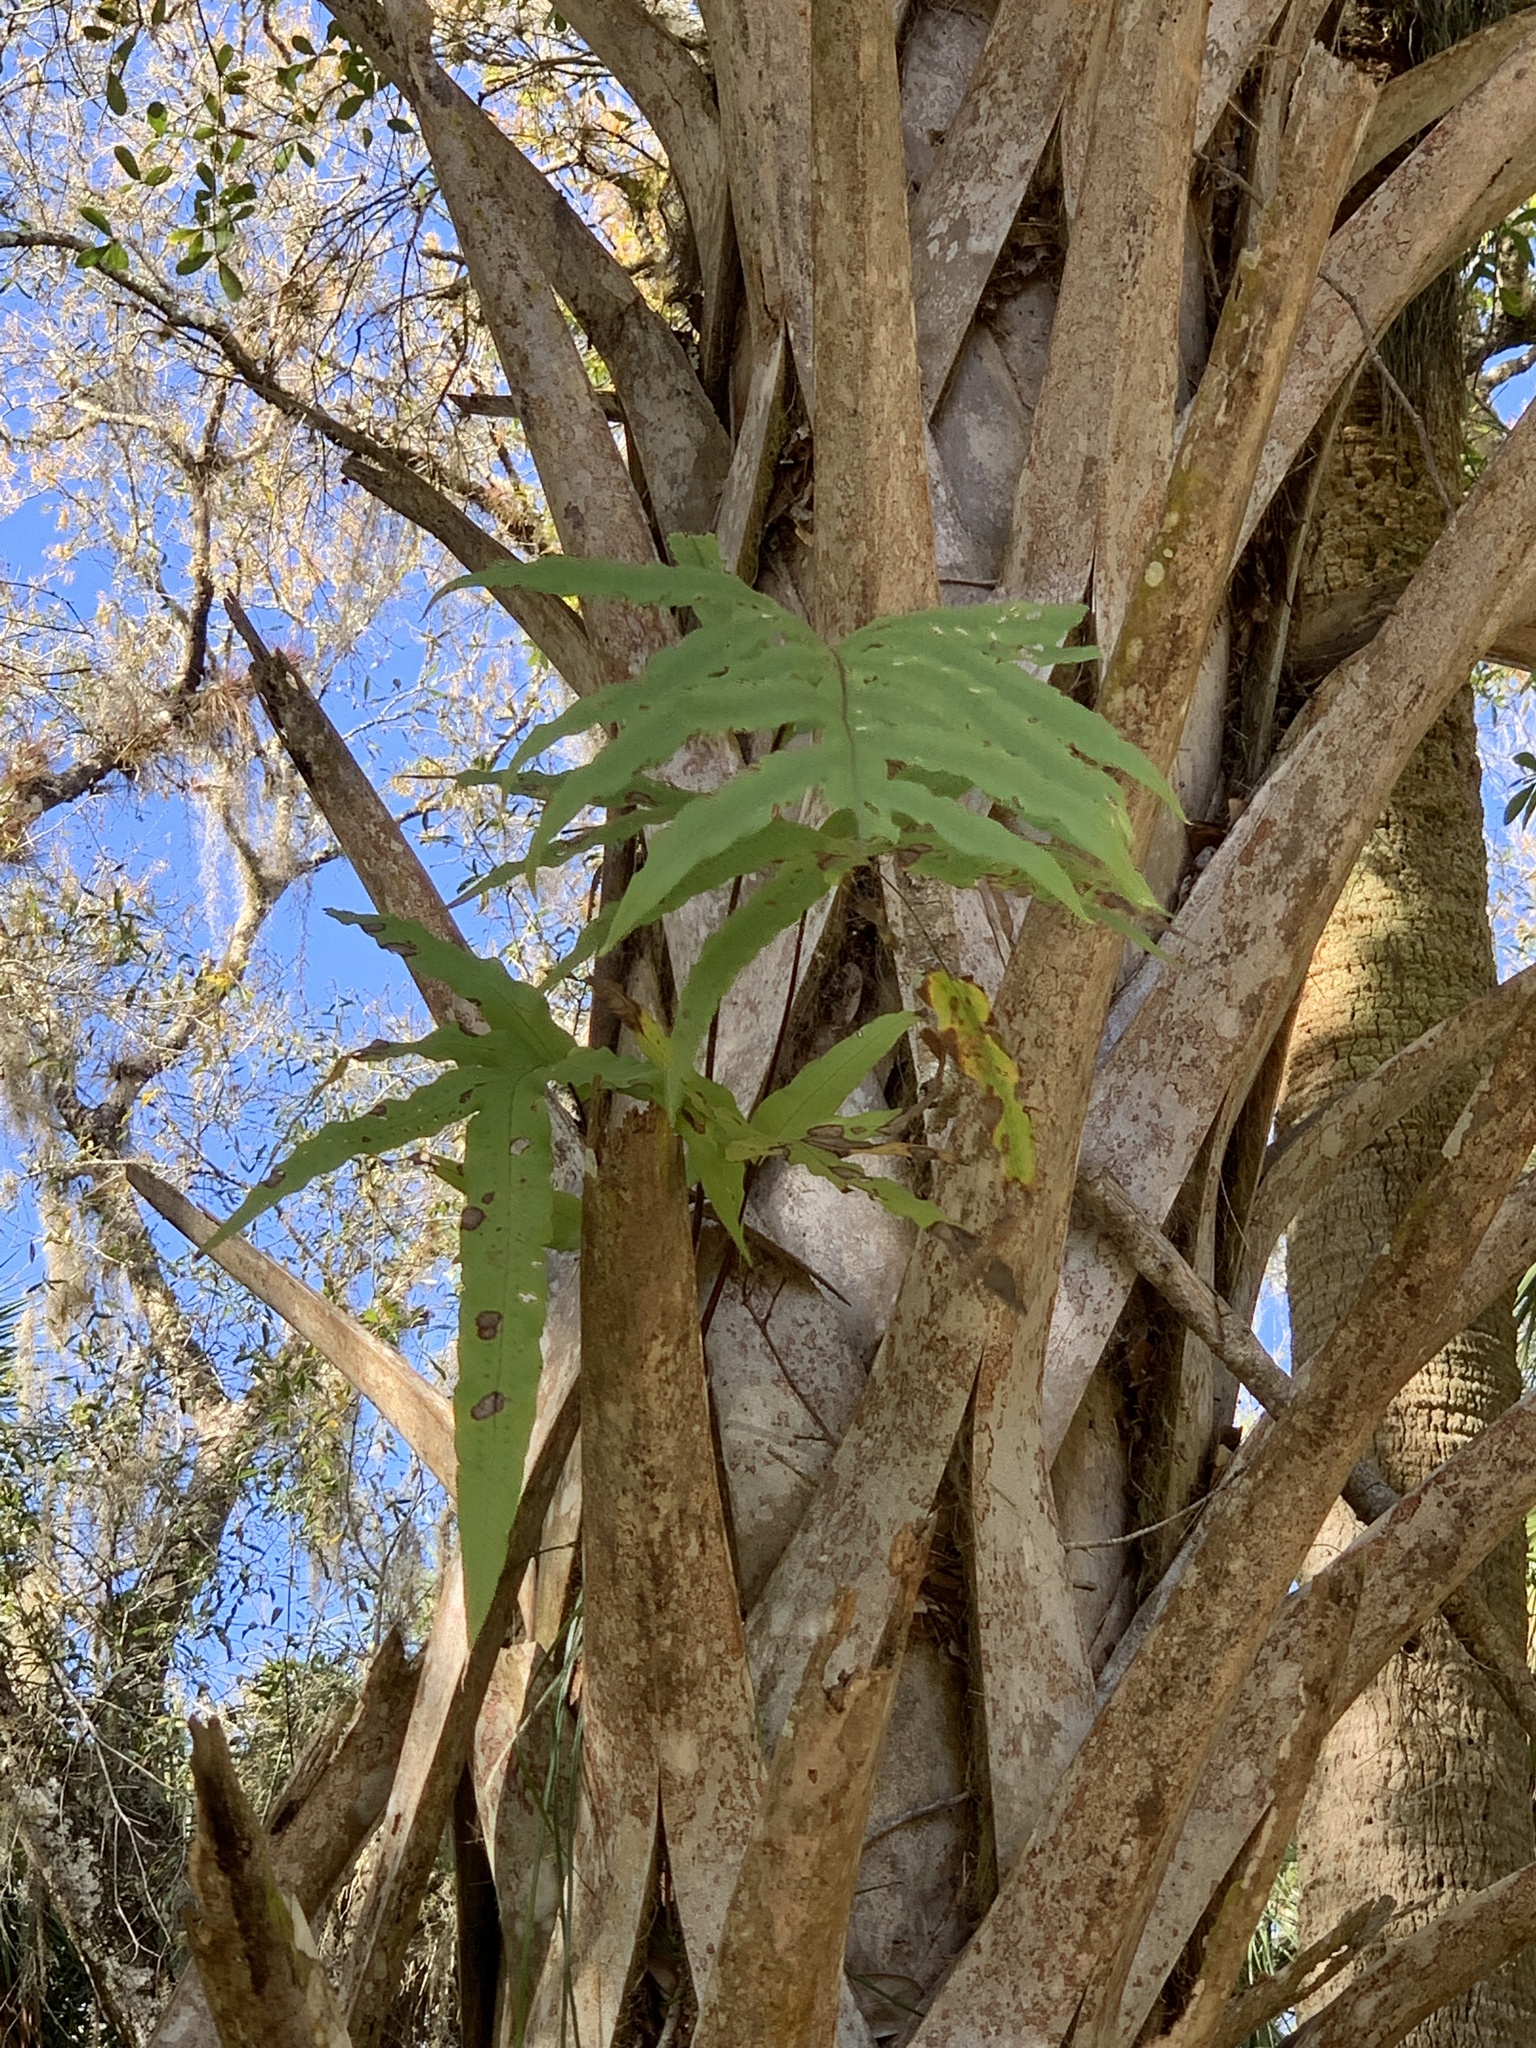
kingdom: Plantae
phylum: Tracheophyta
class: Polypodiopsida
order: Polypodiales
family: Polypodiaceae
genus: Phlebodium
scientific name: Phlebodium aureum
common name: Gold-foot fern
